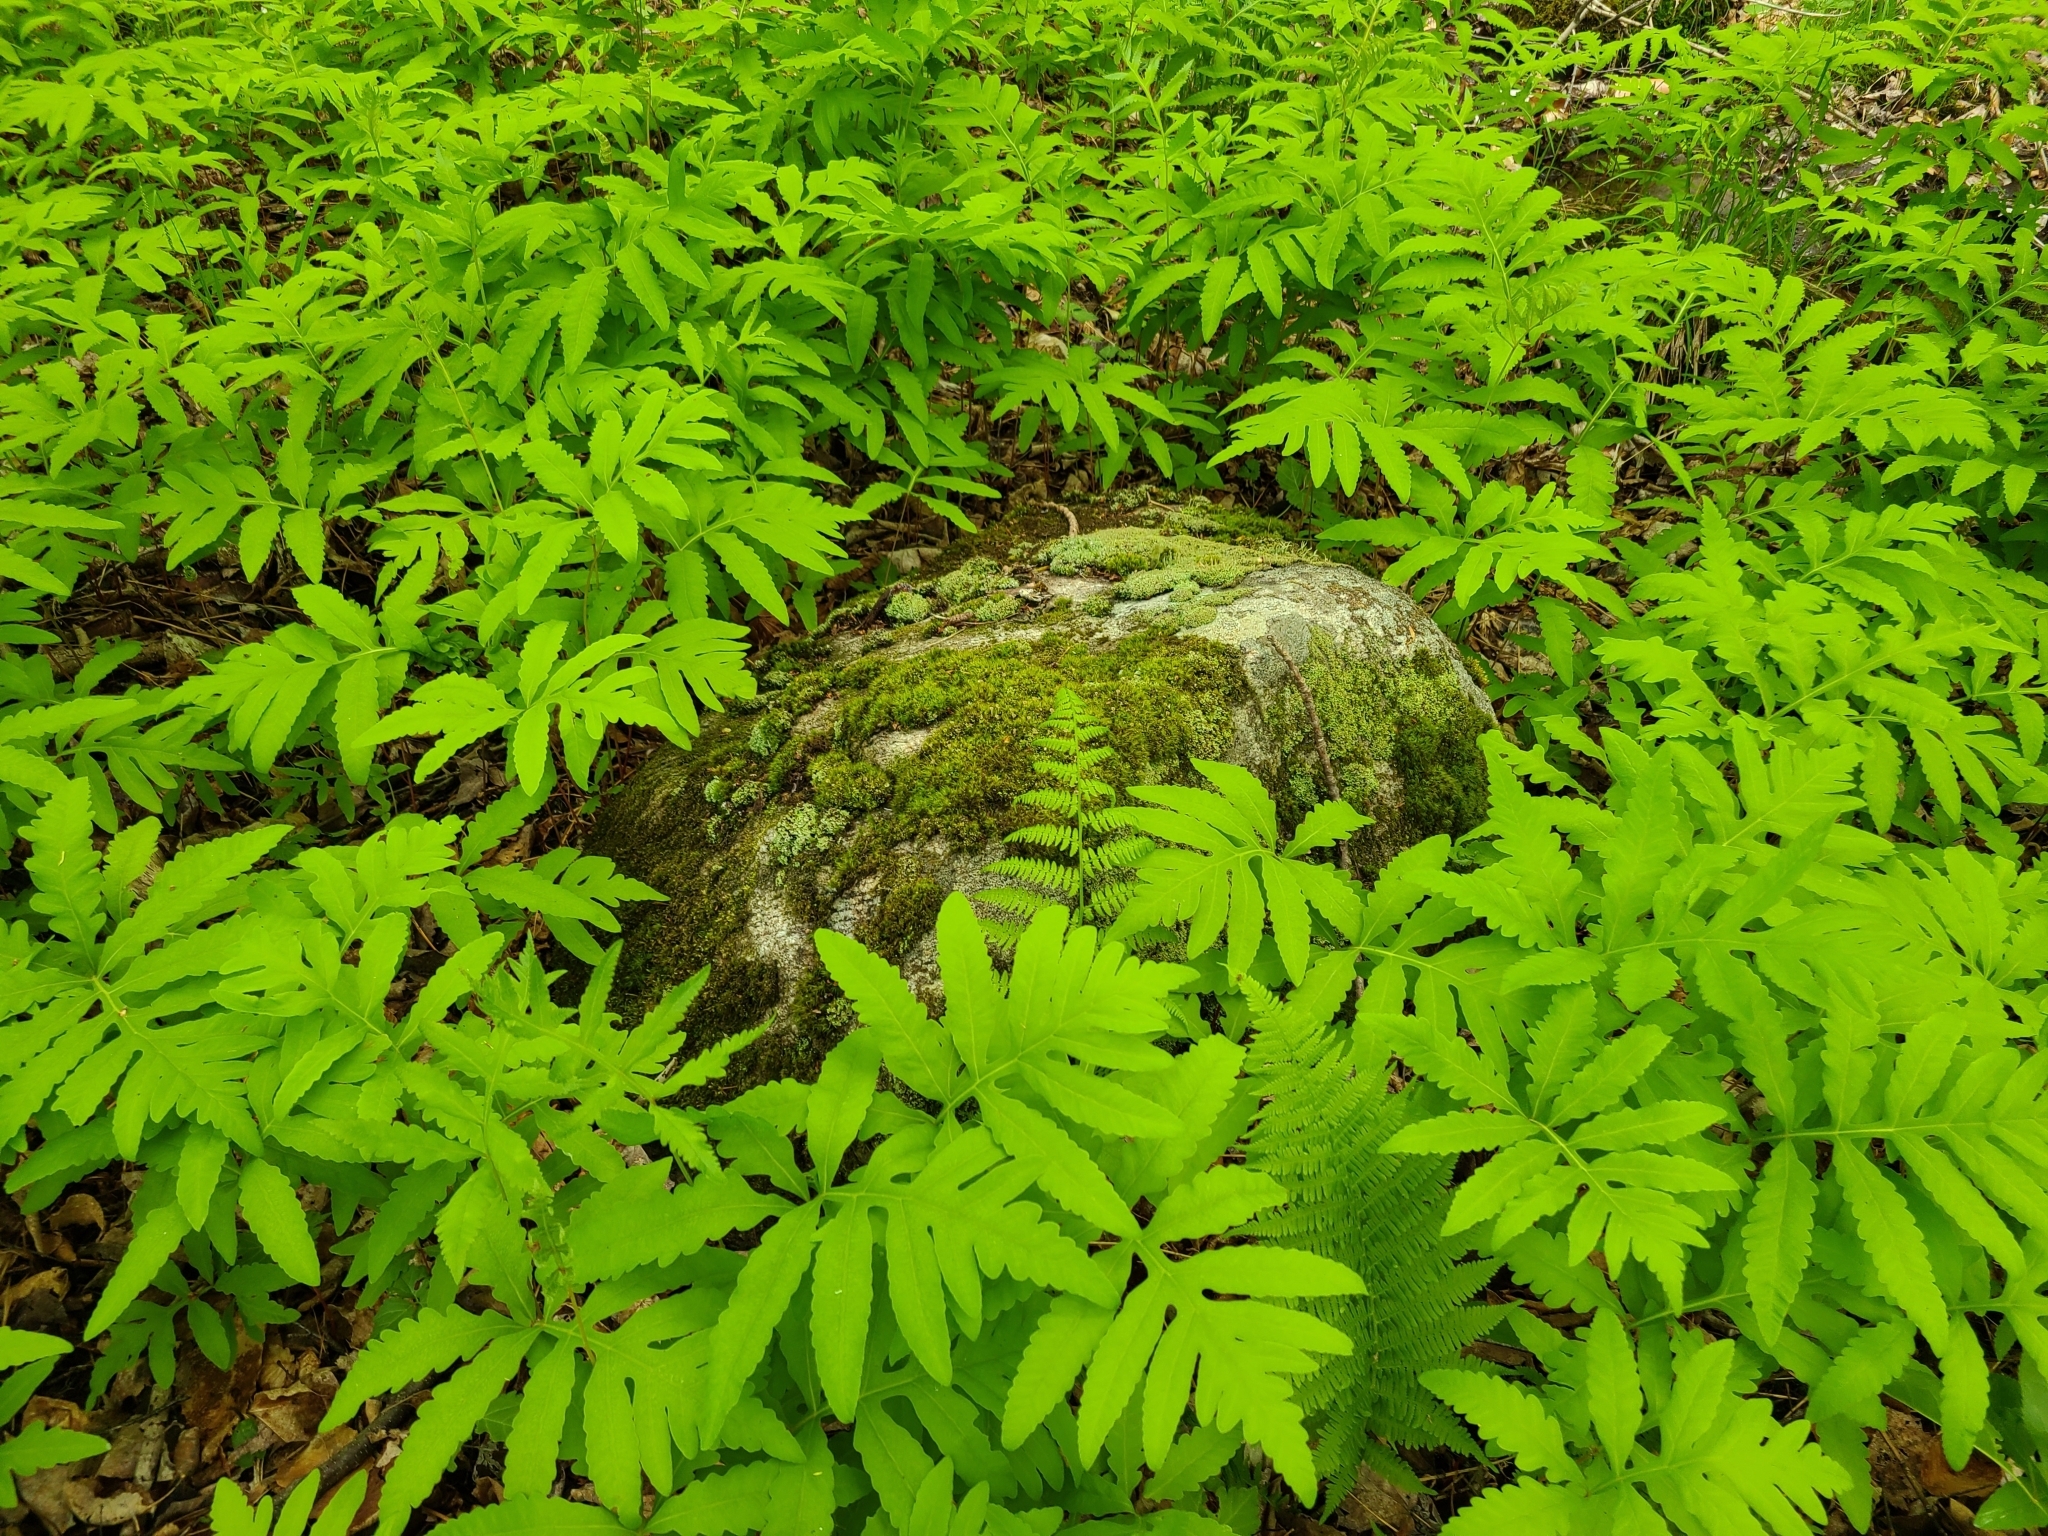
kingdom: Plantae
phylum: Tracheophyta
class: Polypodiopsida
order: Polypodiales
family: Onocleaceae
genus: Onoclea
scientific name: Onoclea sensibilis
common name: Sensitive fern
